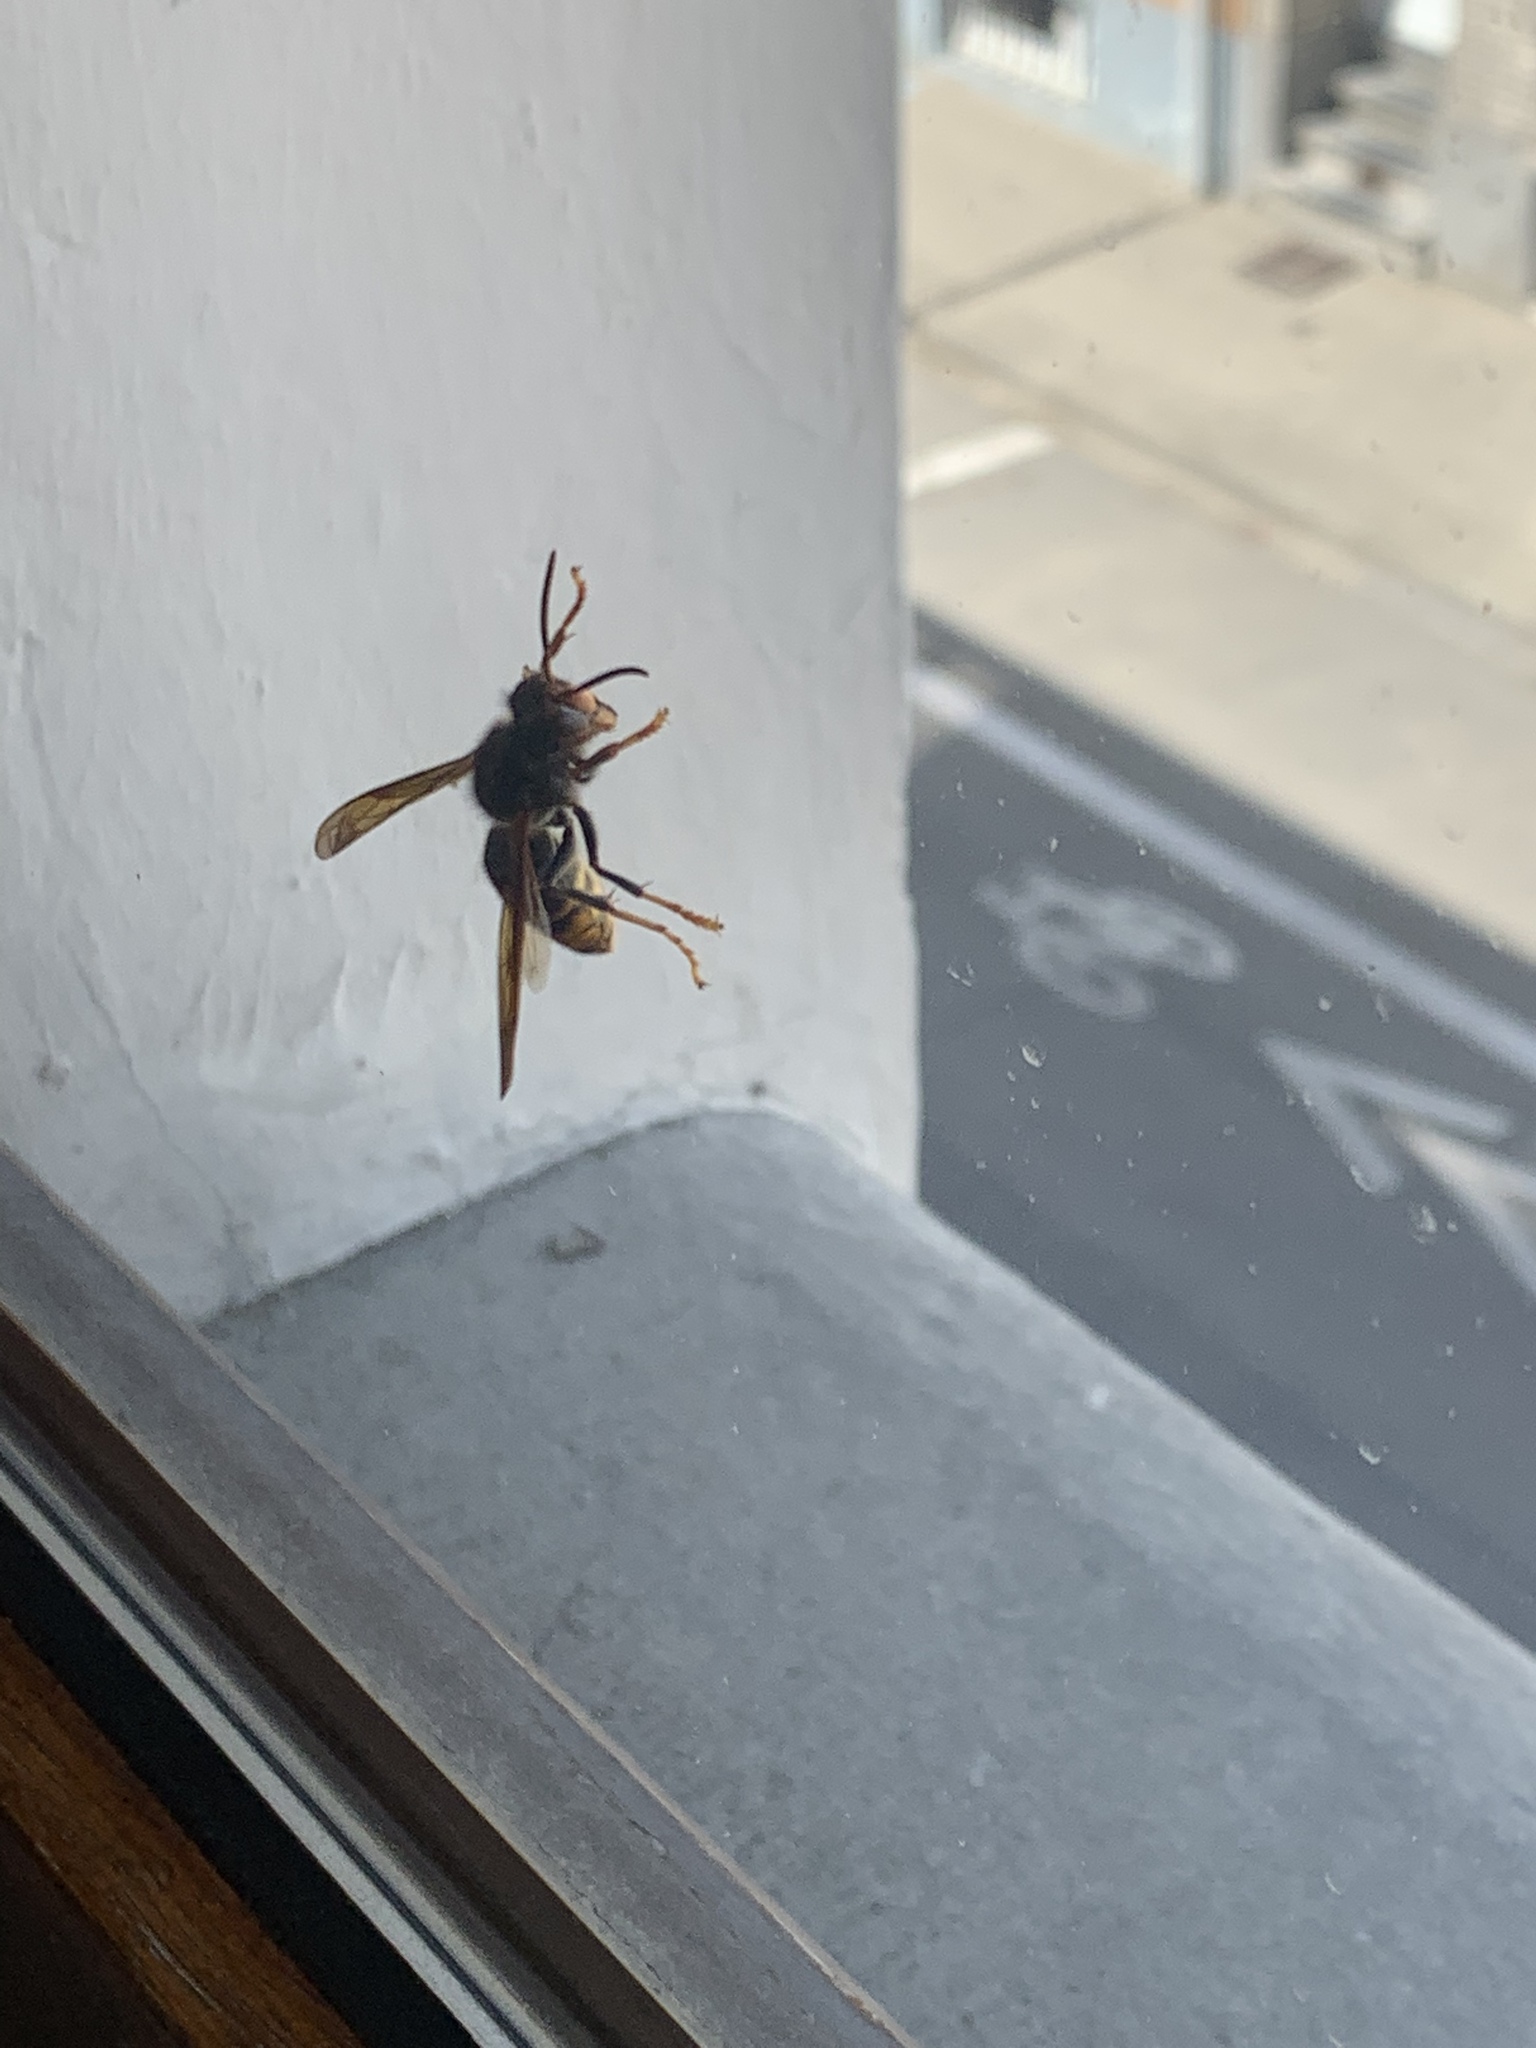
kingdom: Animalia
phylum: Arthropoda
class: Insecta
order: Hymenoptera
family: Vespidae
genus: Vespa
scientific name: Vespa velutina
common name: Asian hornet
